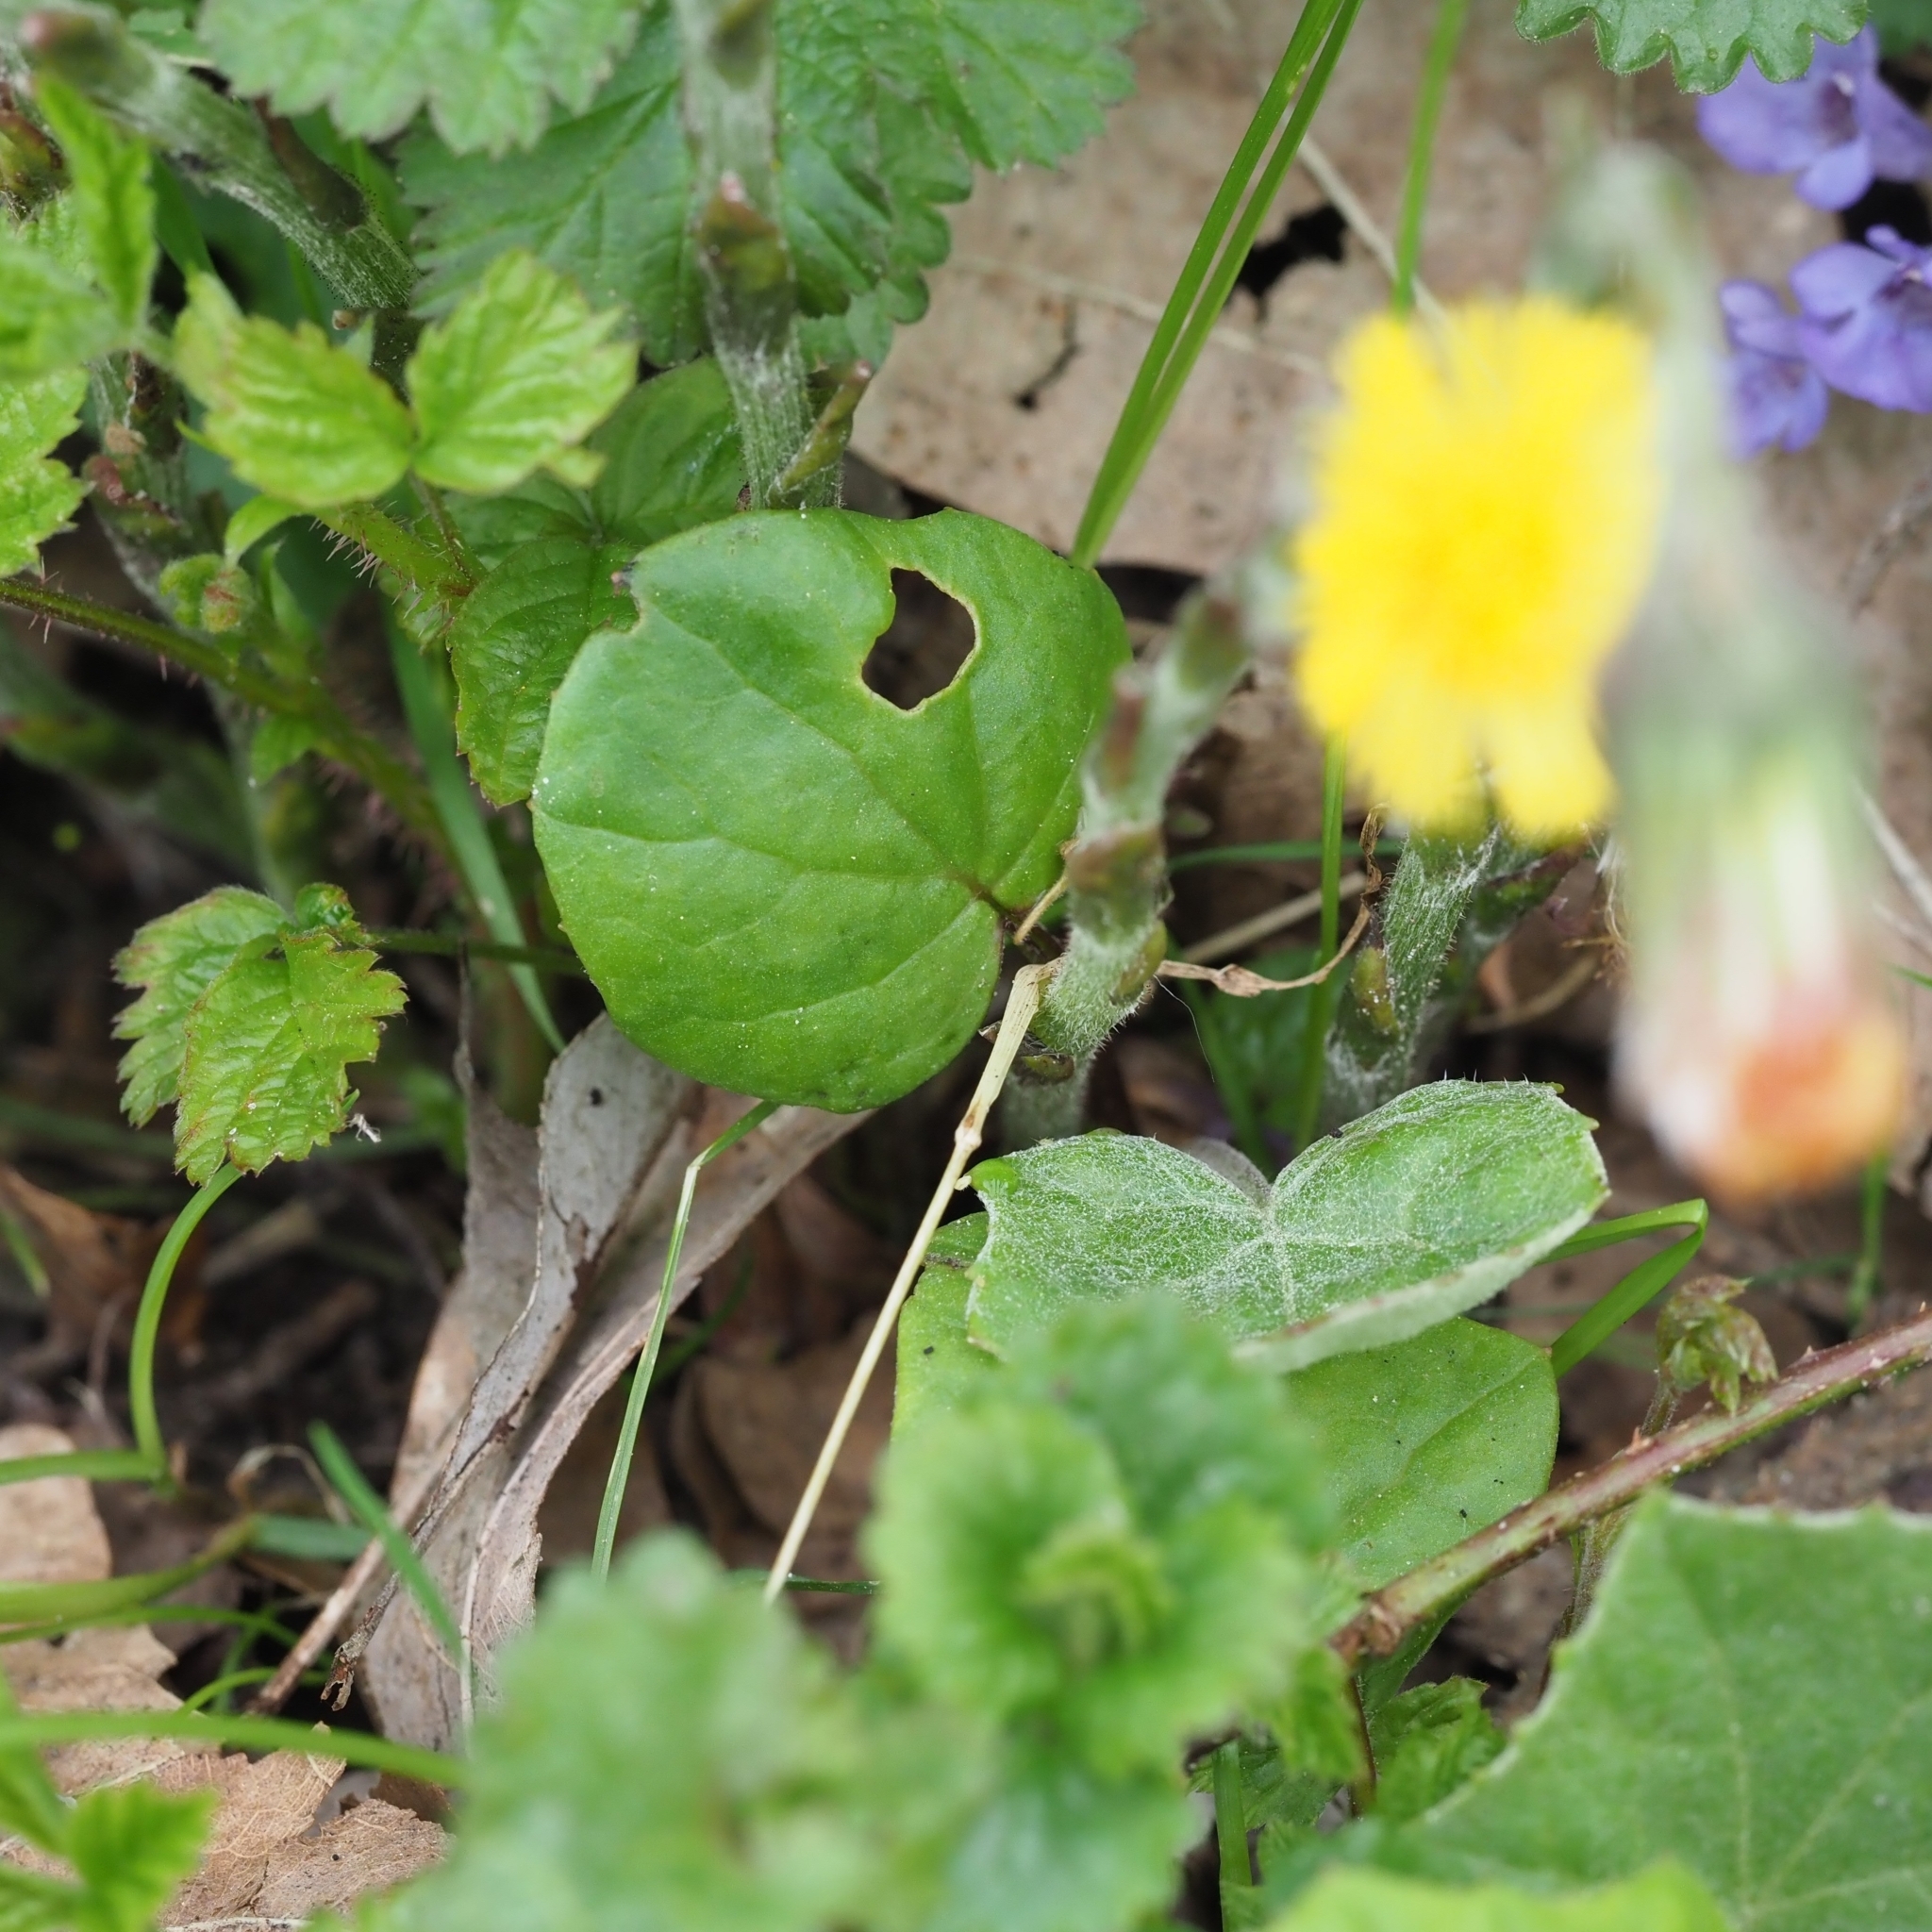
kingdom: Plantae
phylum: Tracheophyta
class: Magnoliopsida
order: Asterales
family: Asteraceae
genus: Tussilago
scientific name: Tussilago farfara
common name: Coltsfoot
